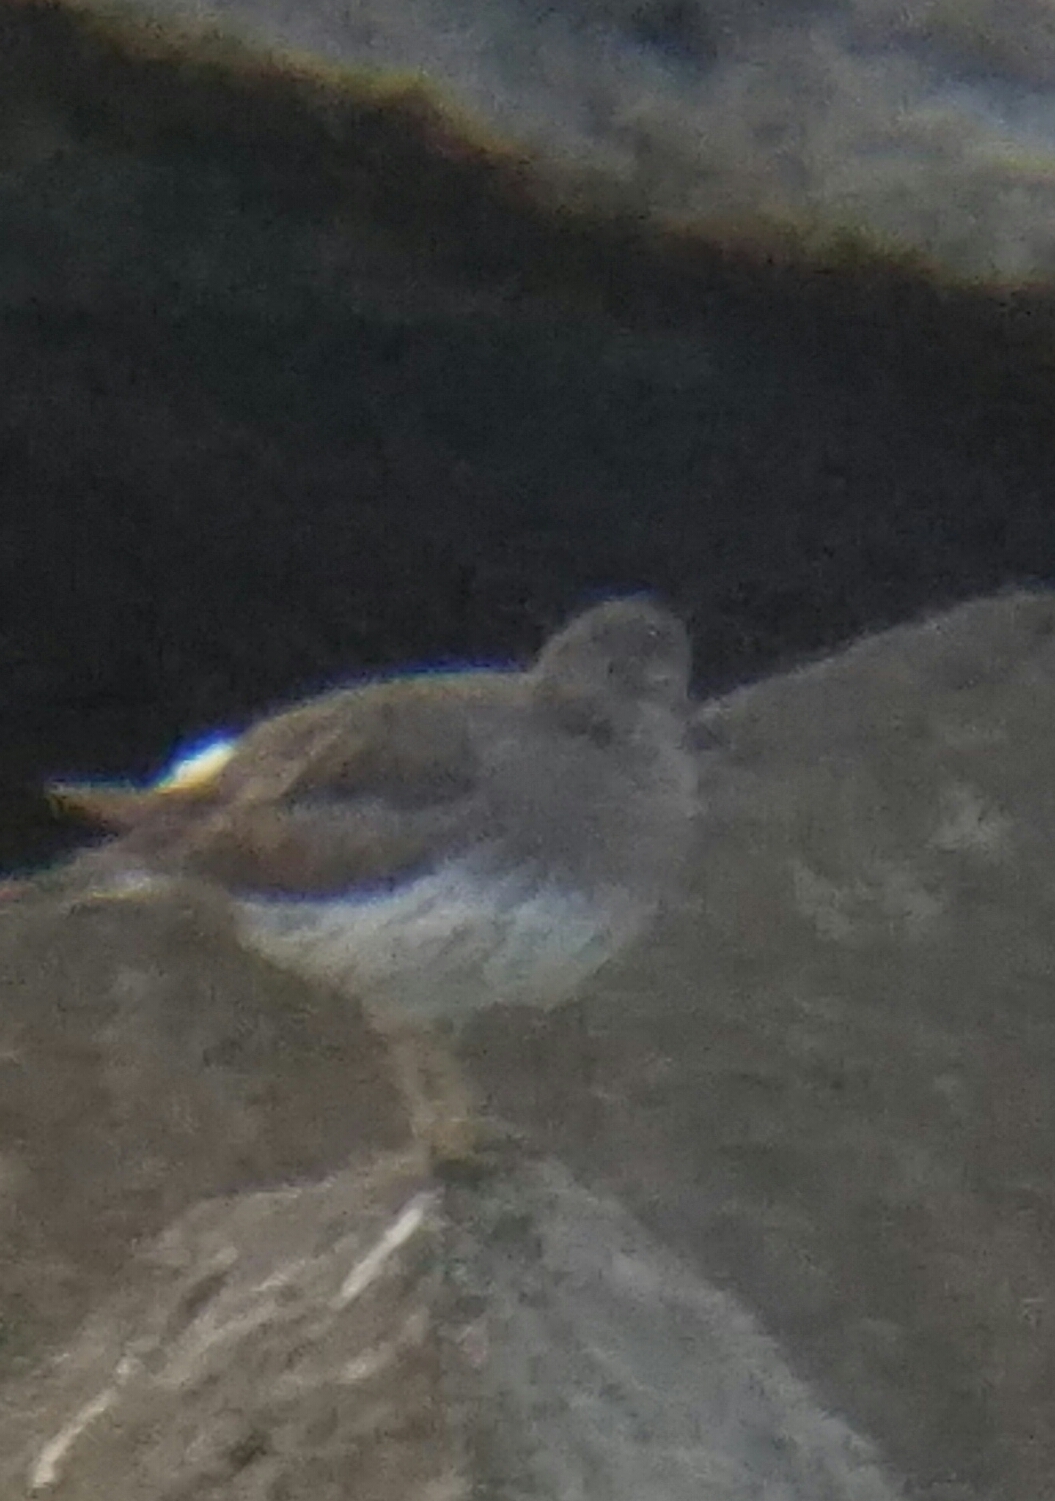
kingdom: Animalia
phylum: Chordata
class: Aves
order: Charadriiformes
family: Scolopacidae
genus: Calidris
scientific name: Calidris virgata
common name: Surfbird
